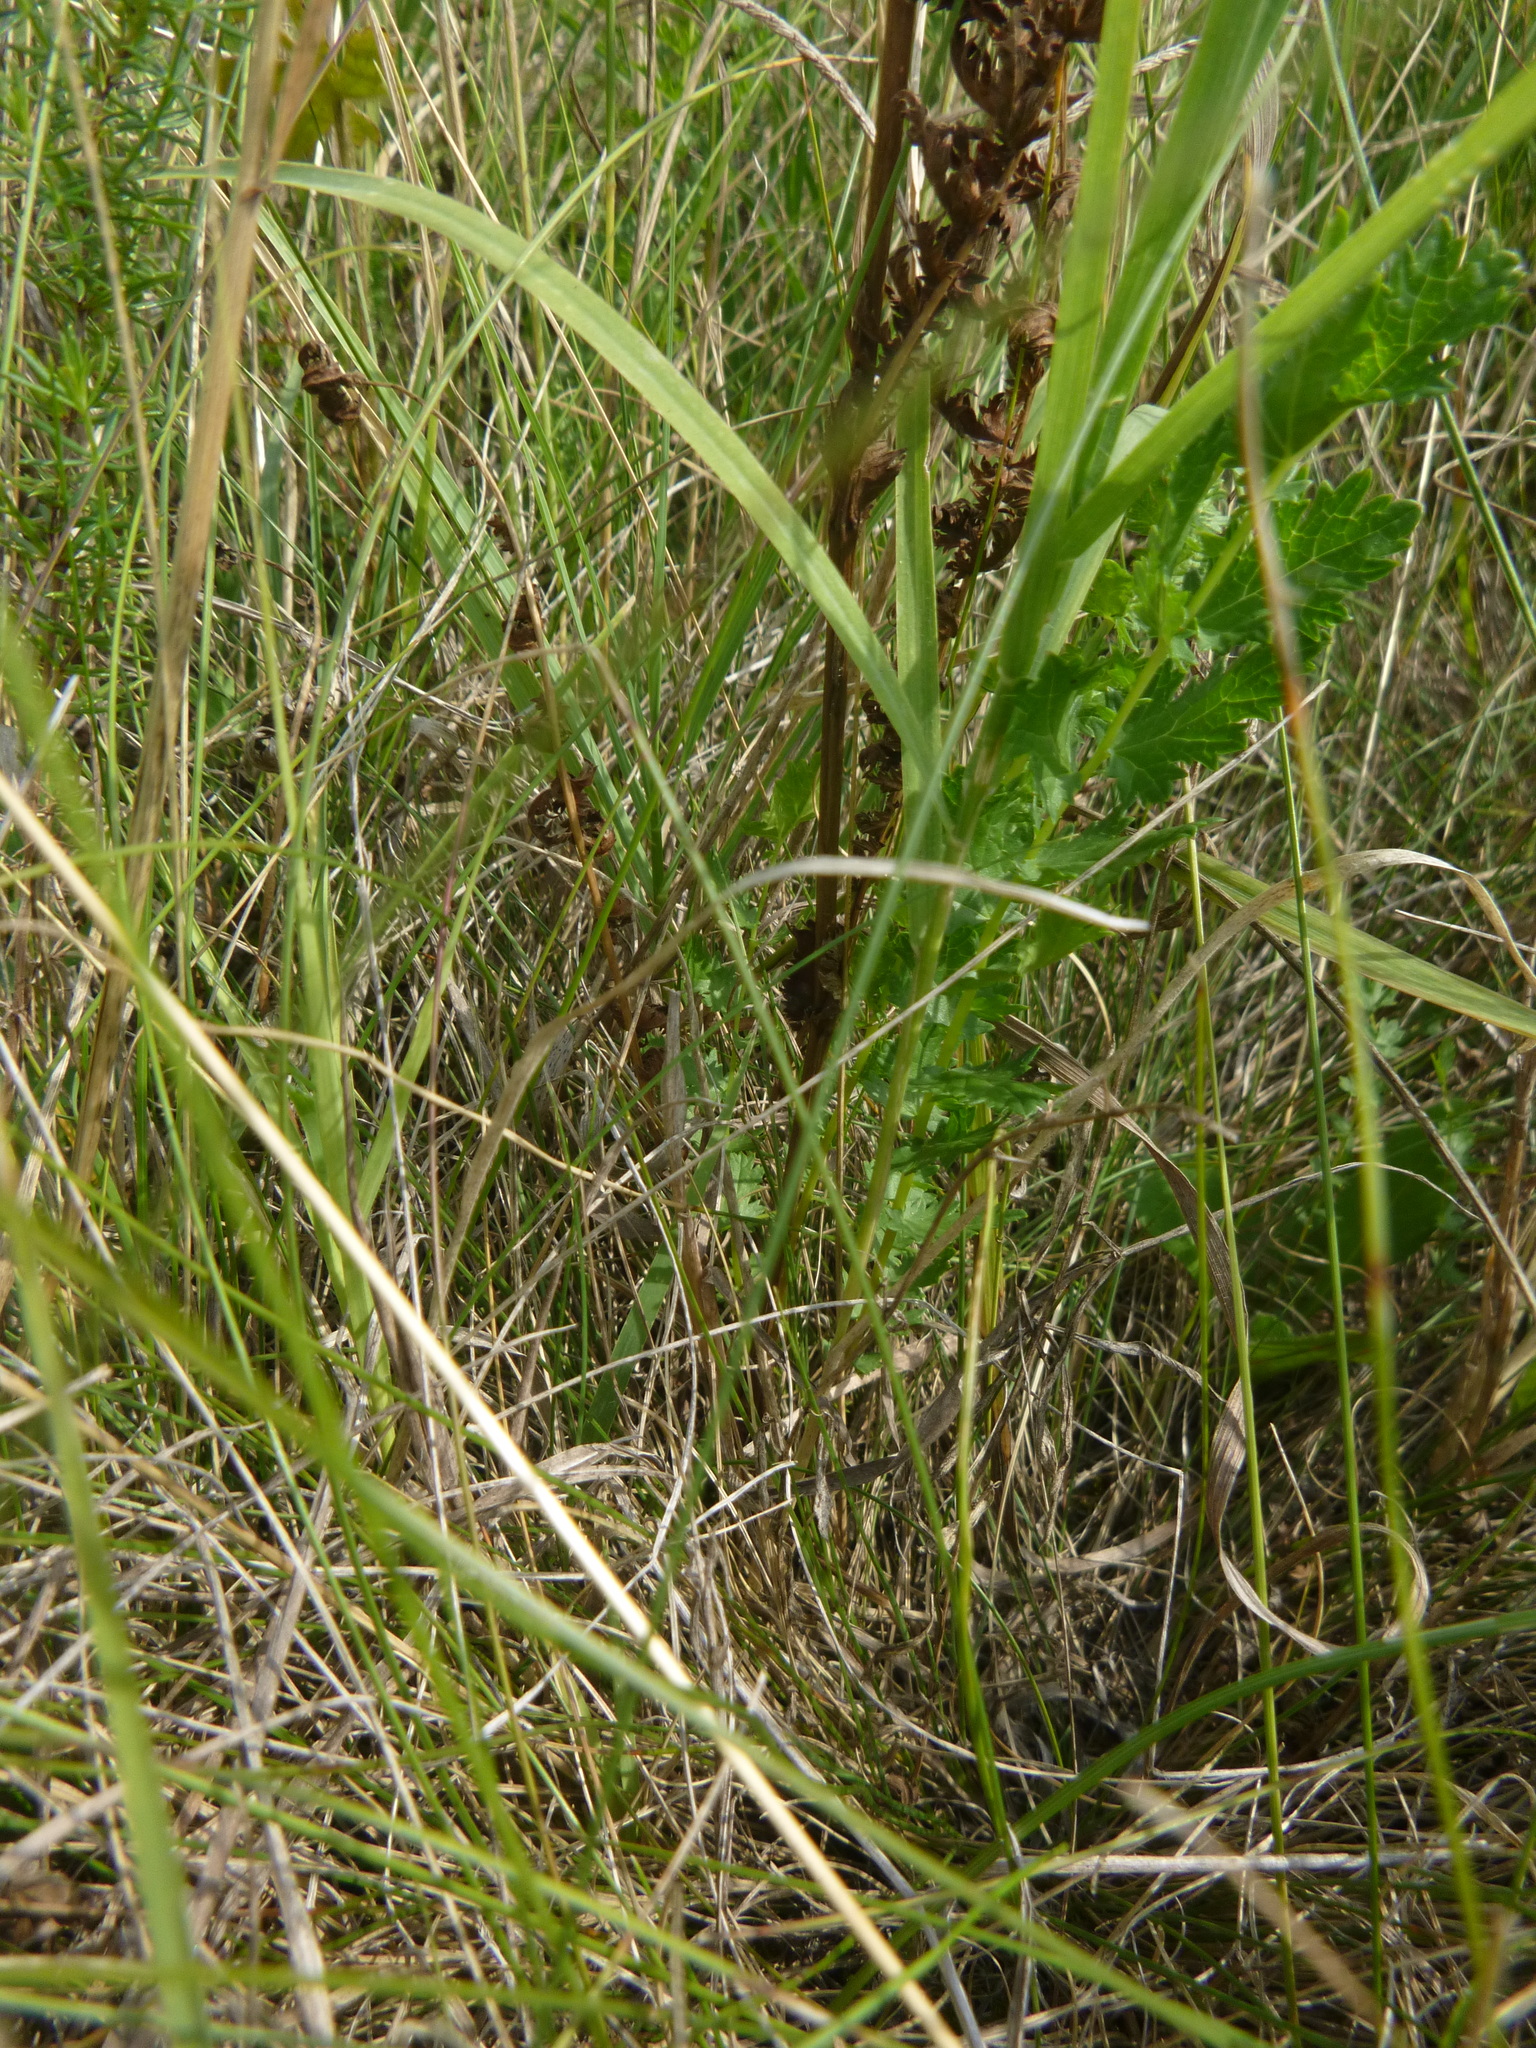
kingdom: Plantae
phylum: Tracheophyta
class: Magnoliopsida
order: Rosales
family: Rosaceae
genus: Filipendula
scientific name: Filipendula vulgaris
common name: Dropwort
